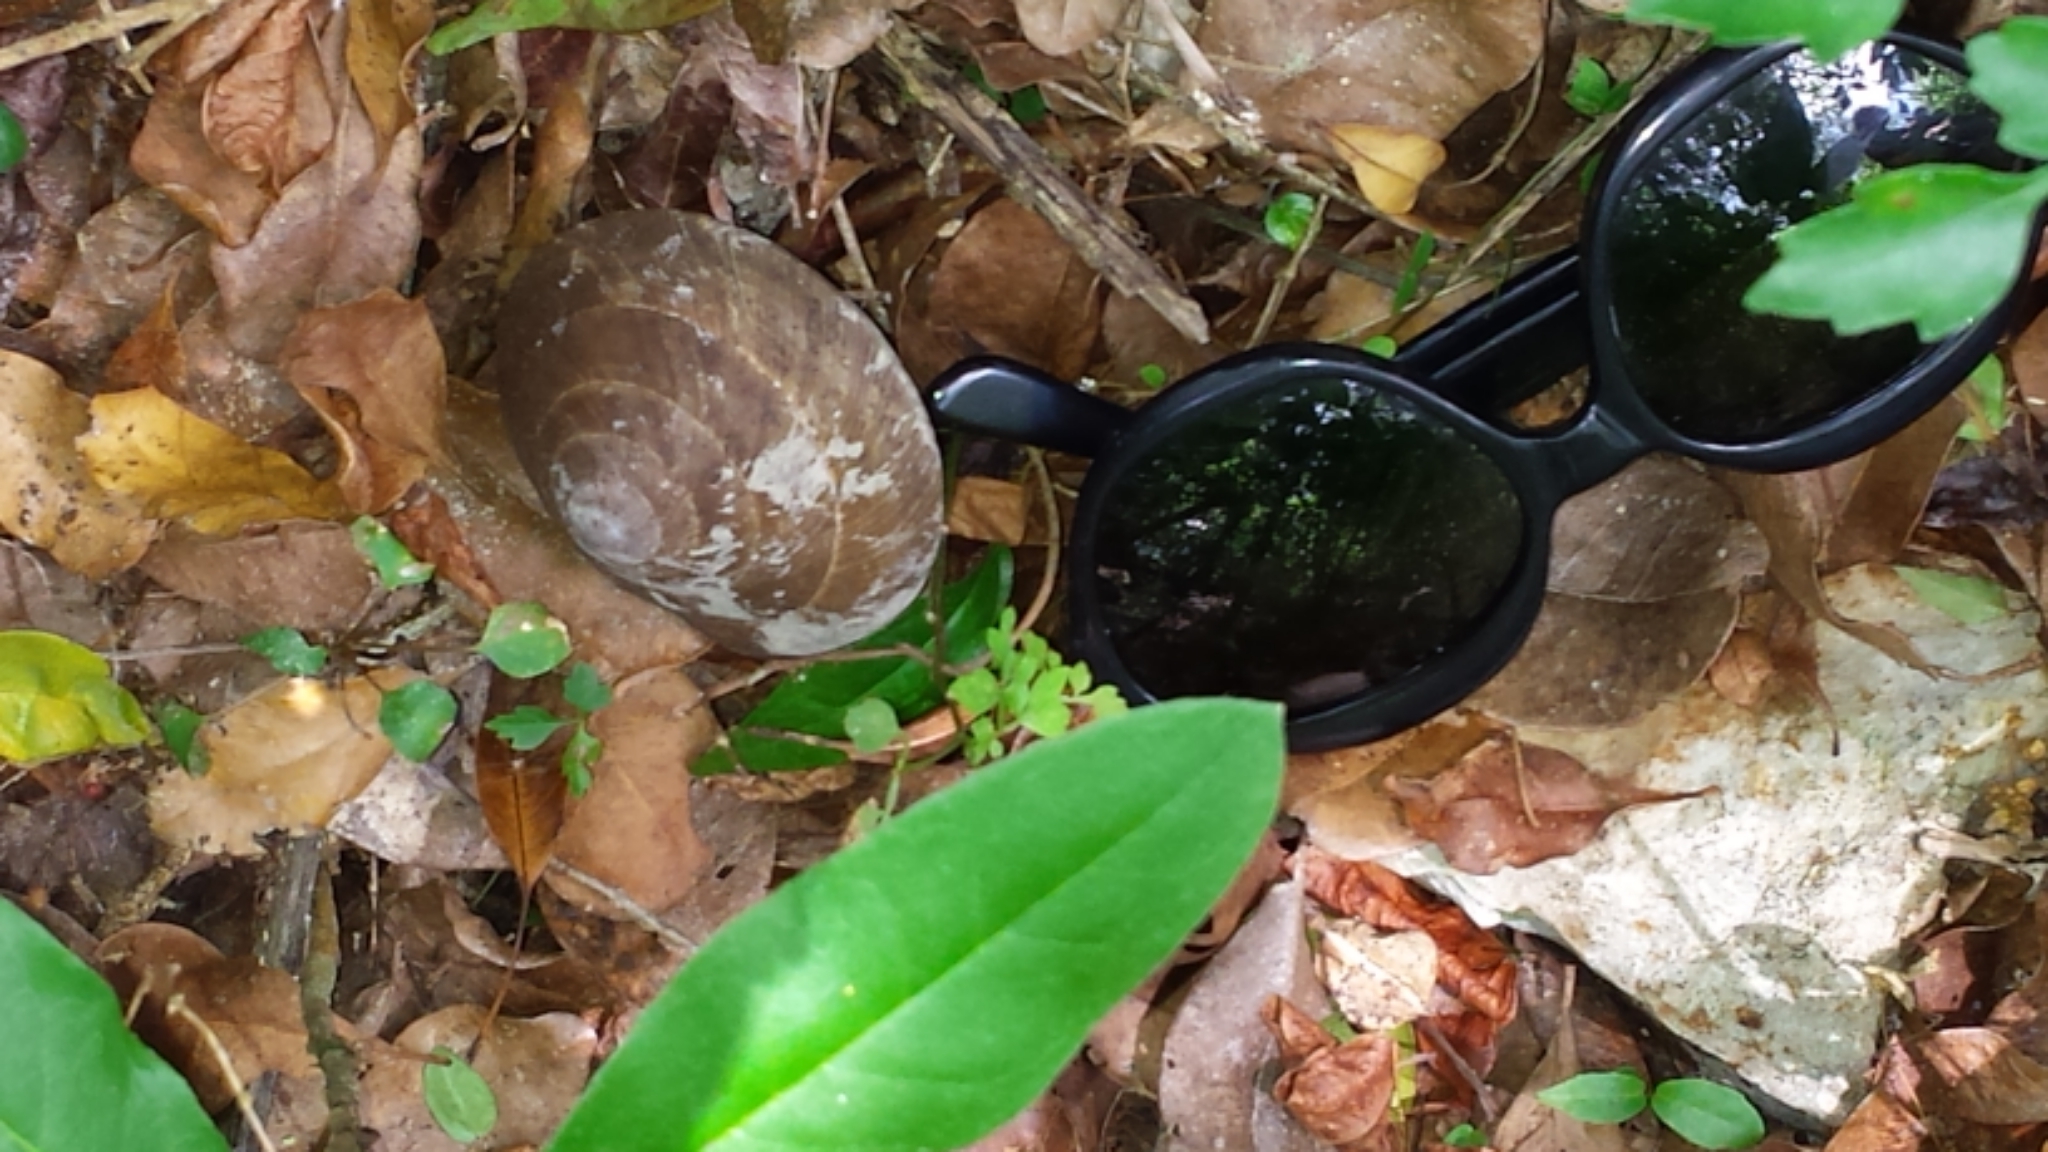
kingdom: Animalia
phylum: Arthropoda
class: Malacostraca
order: Decapoda
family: Coenobitidae
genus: Coenobita
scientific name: Coenobita clypeatus
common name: Caribbean hermit crab
